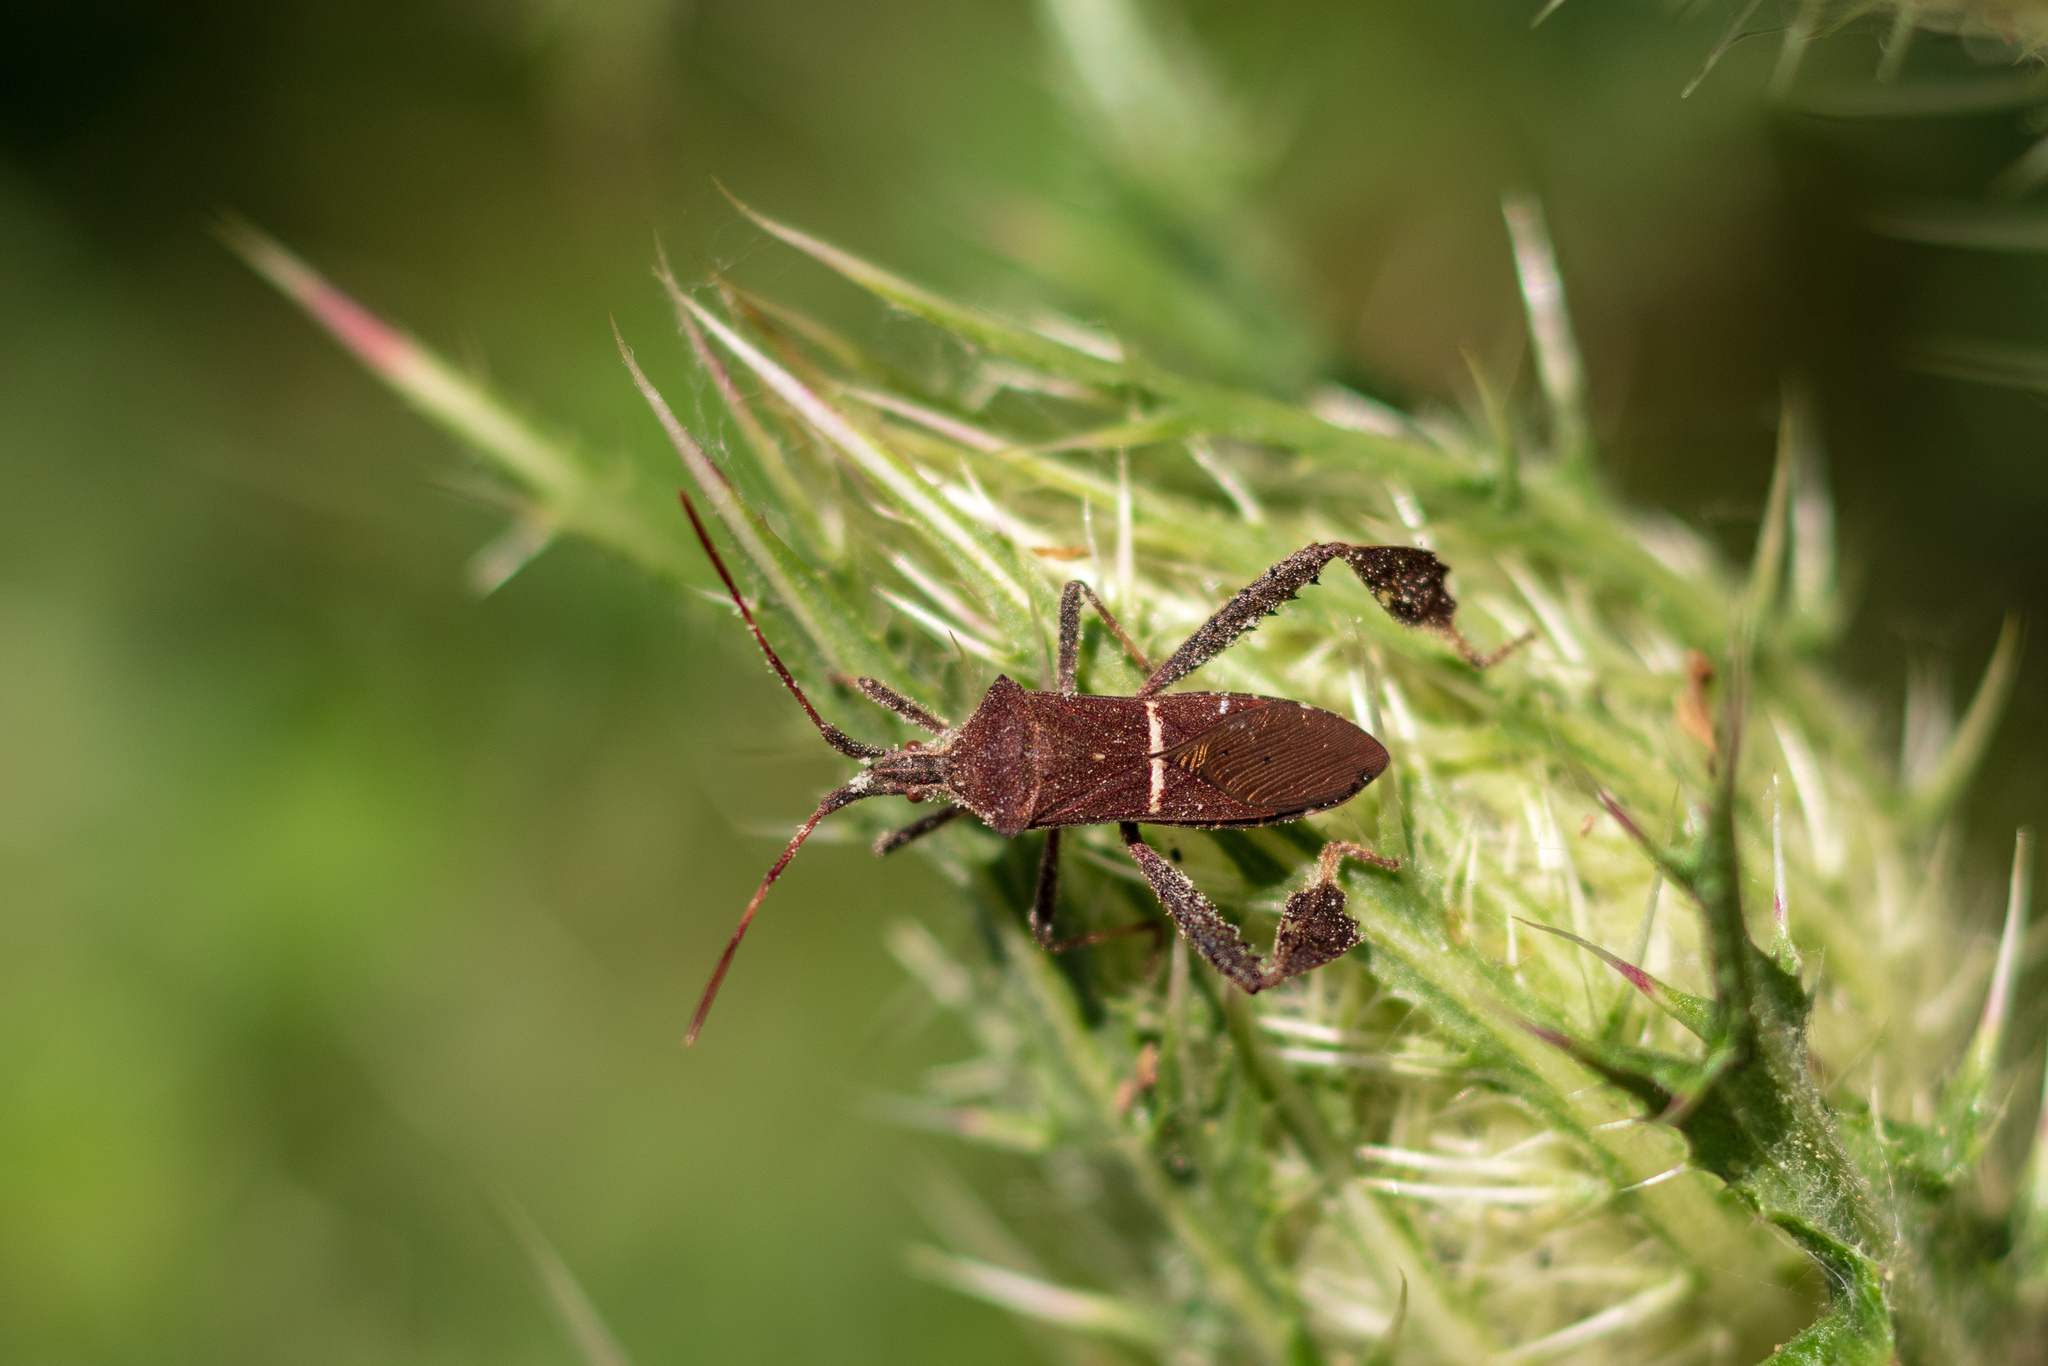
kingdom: Animalia
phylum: Arthropoda
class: Insecta
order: Hemiptera
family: Coreidae
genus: Leptoglossus
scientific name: Leptoglossus phyllopus
